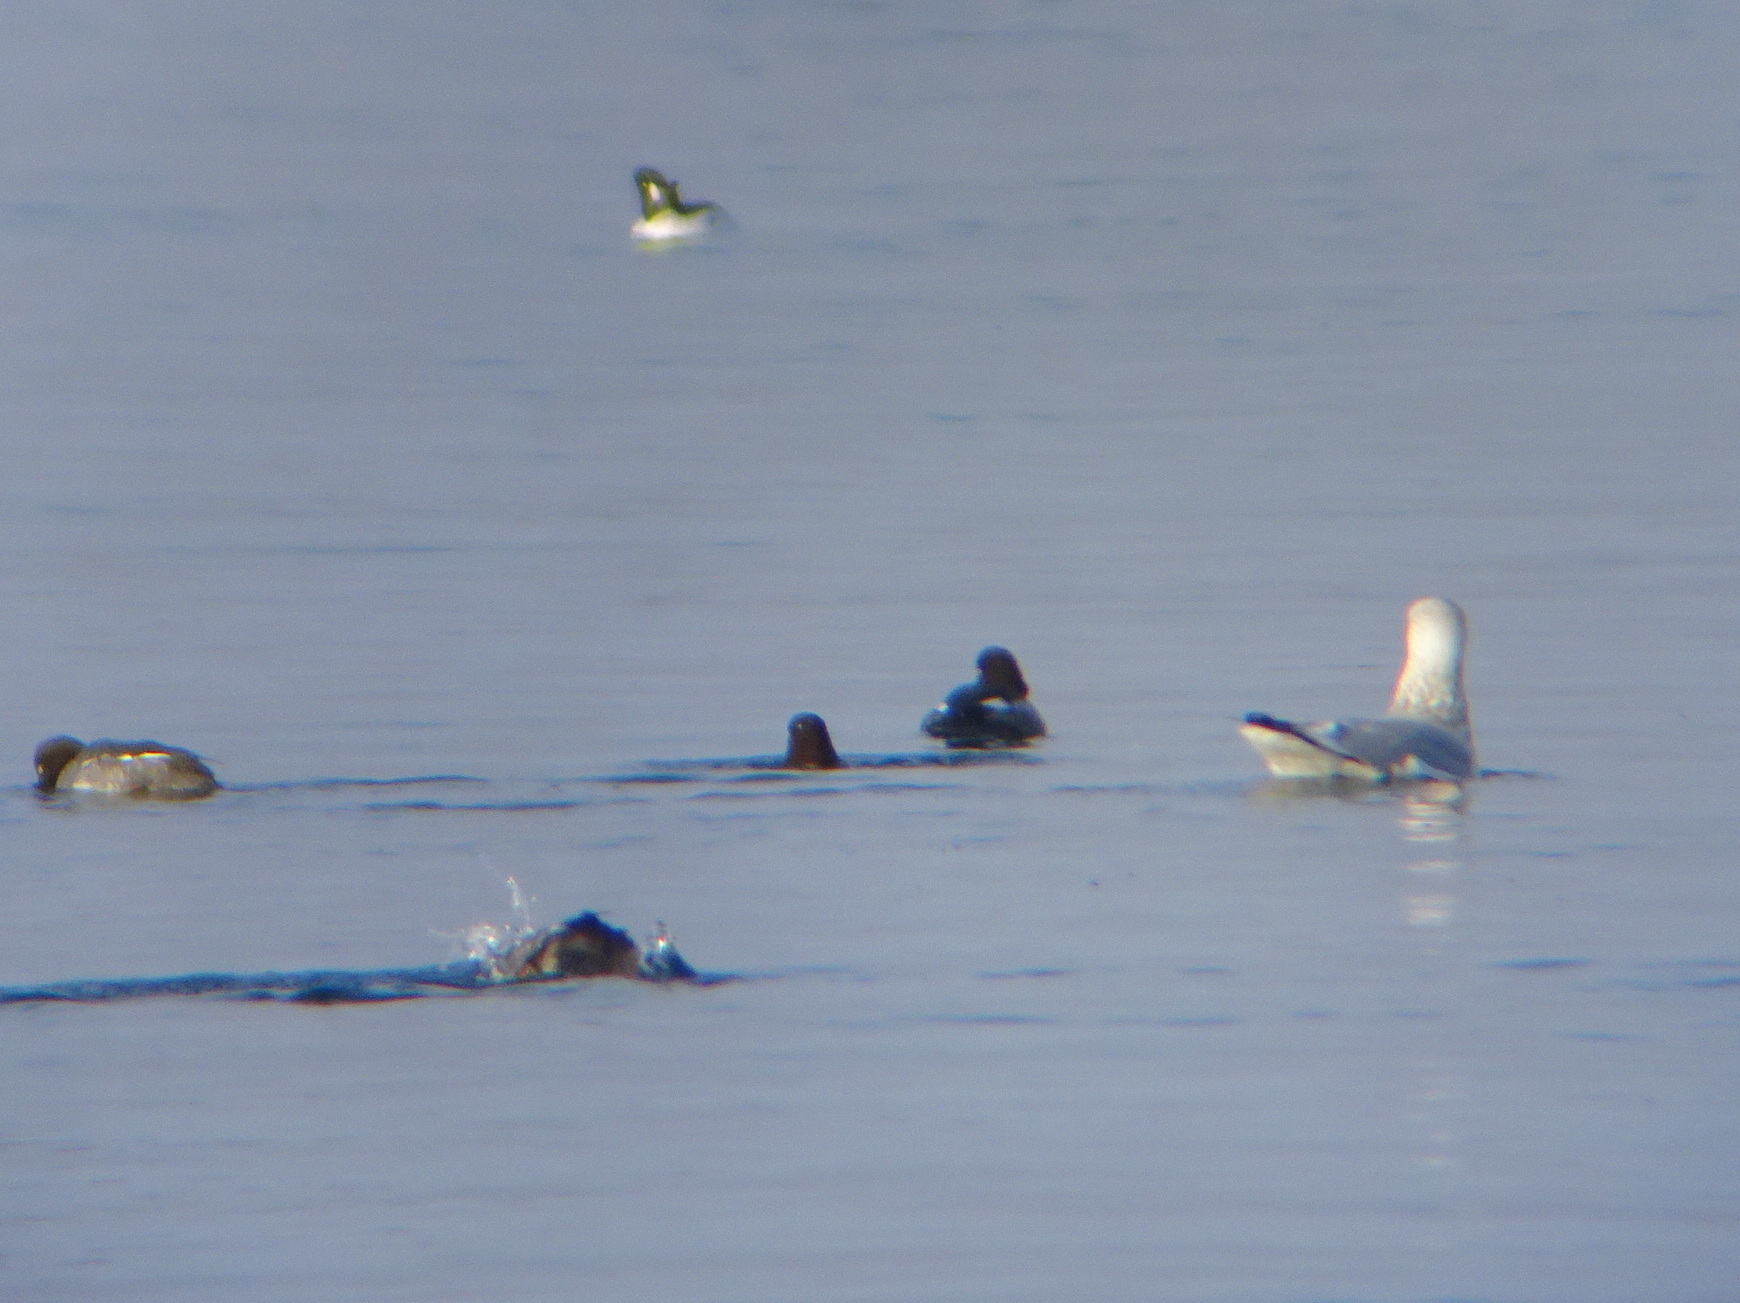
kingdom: Animalia
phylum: Chordata
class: Aves
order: Charadriiformes
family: Laridae
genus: Larus
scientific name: Larus argentatus
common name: Herring gull
